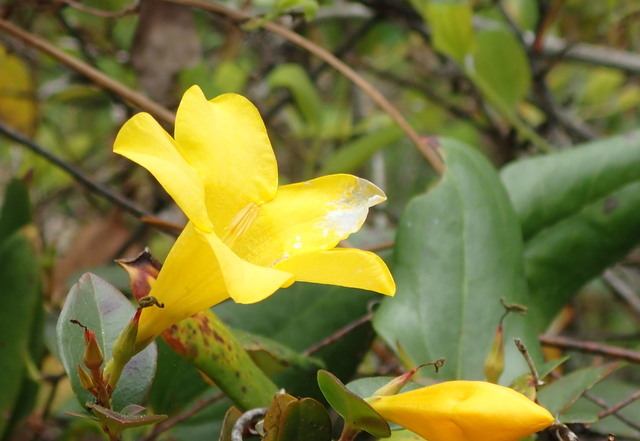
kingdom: Plantae
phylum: Tracheophyta
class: Magnoliopsida
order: Gentianales
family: Gelsemiaceae
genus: Gelsemium
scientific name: Gelsemium rankinii
